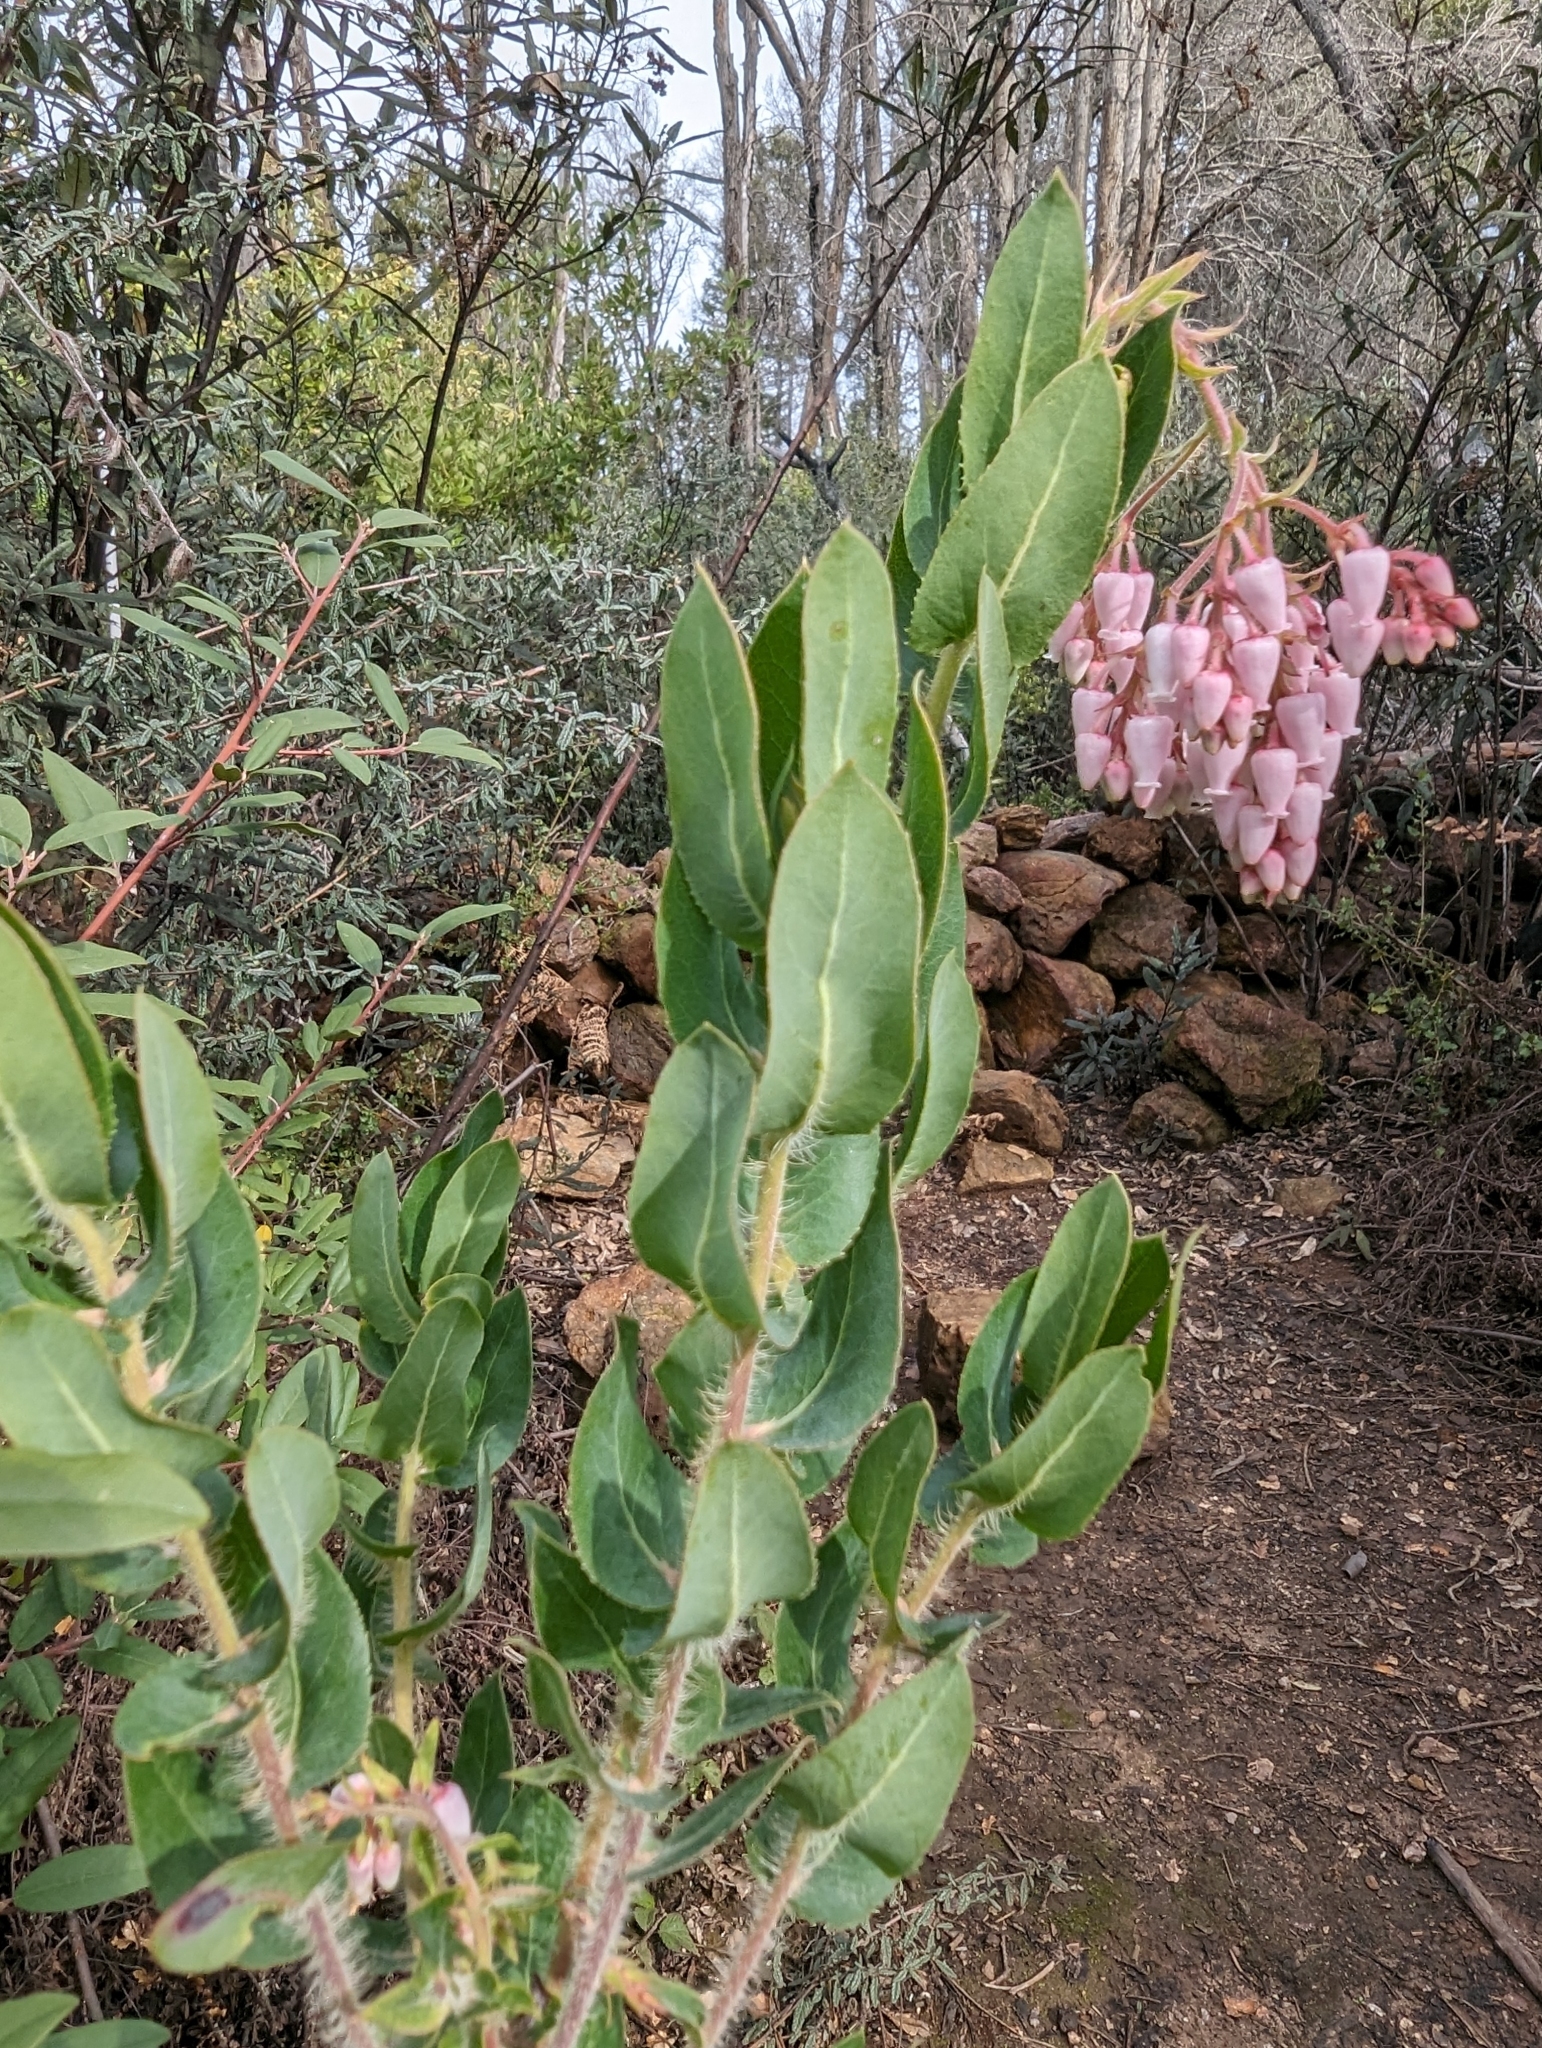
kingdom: Plantae
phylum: Tracheophyta
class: Magnoliopsida
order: Ericales
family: Ericaceae
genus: Arctostaphylos
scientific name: Arctostaphylos andersonii
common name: Santa cruz manzanita
